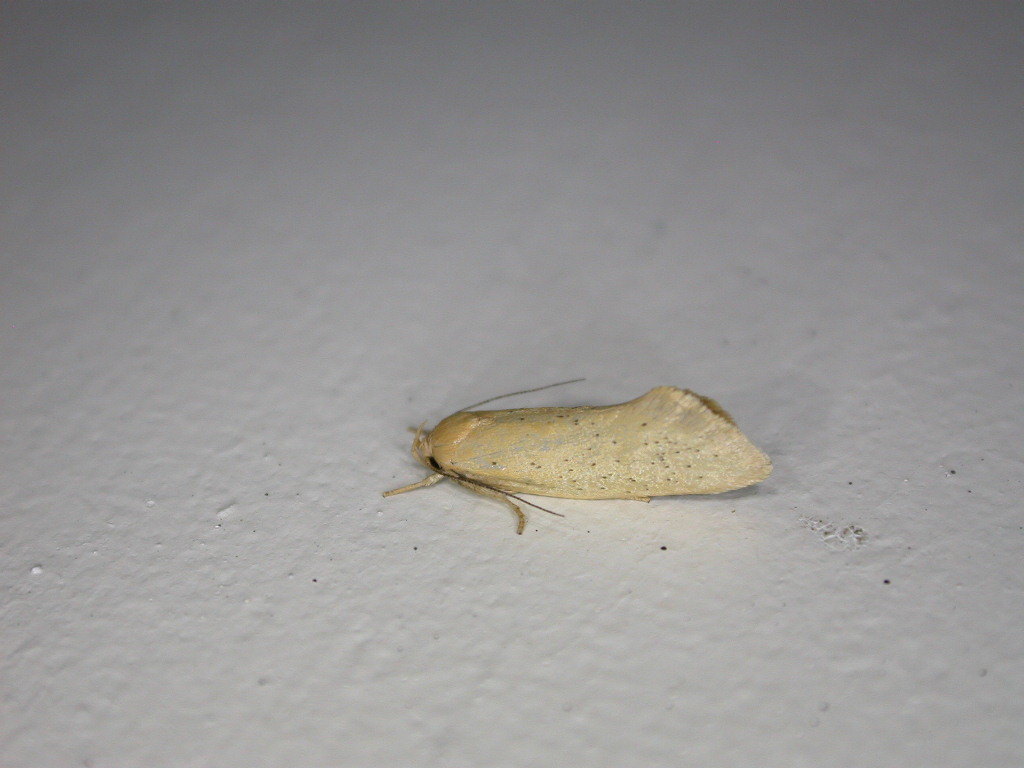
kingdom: Animalia
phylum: Arthropoda
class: Insecta
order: Lepidoptera
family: Oecophoridae
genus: Tingena
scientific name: Tingena armigerella
